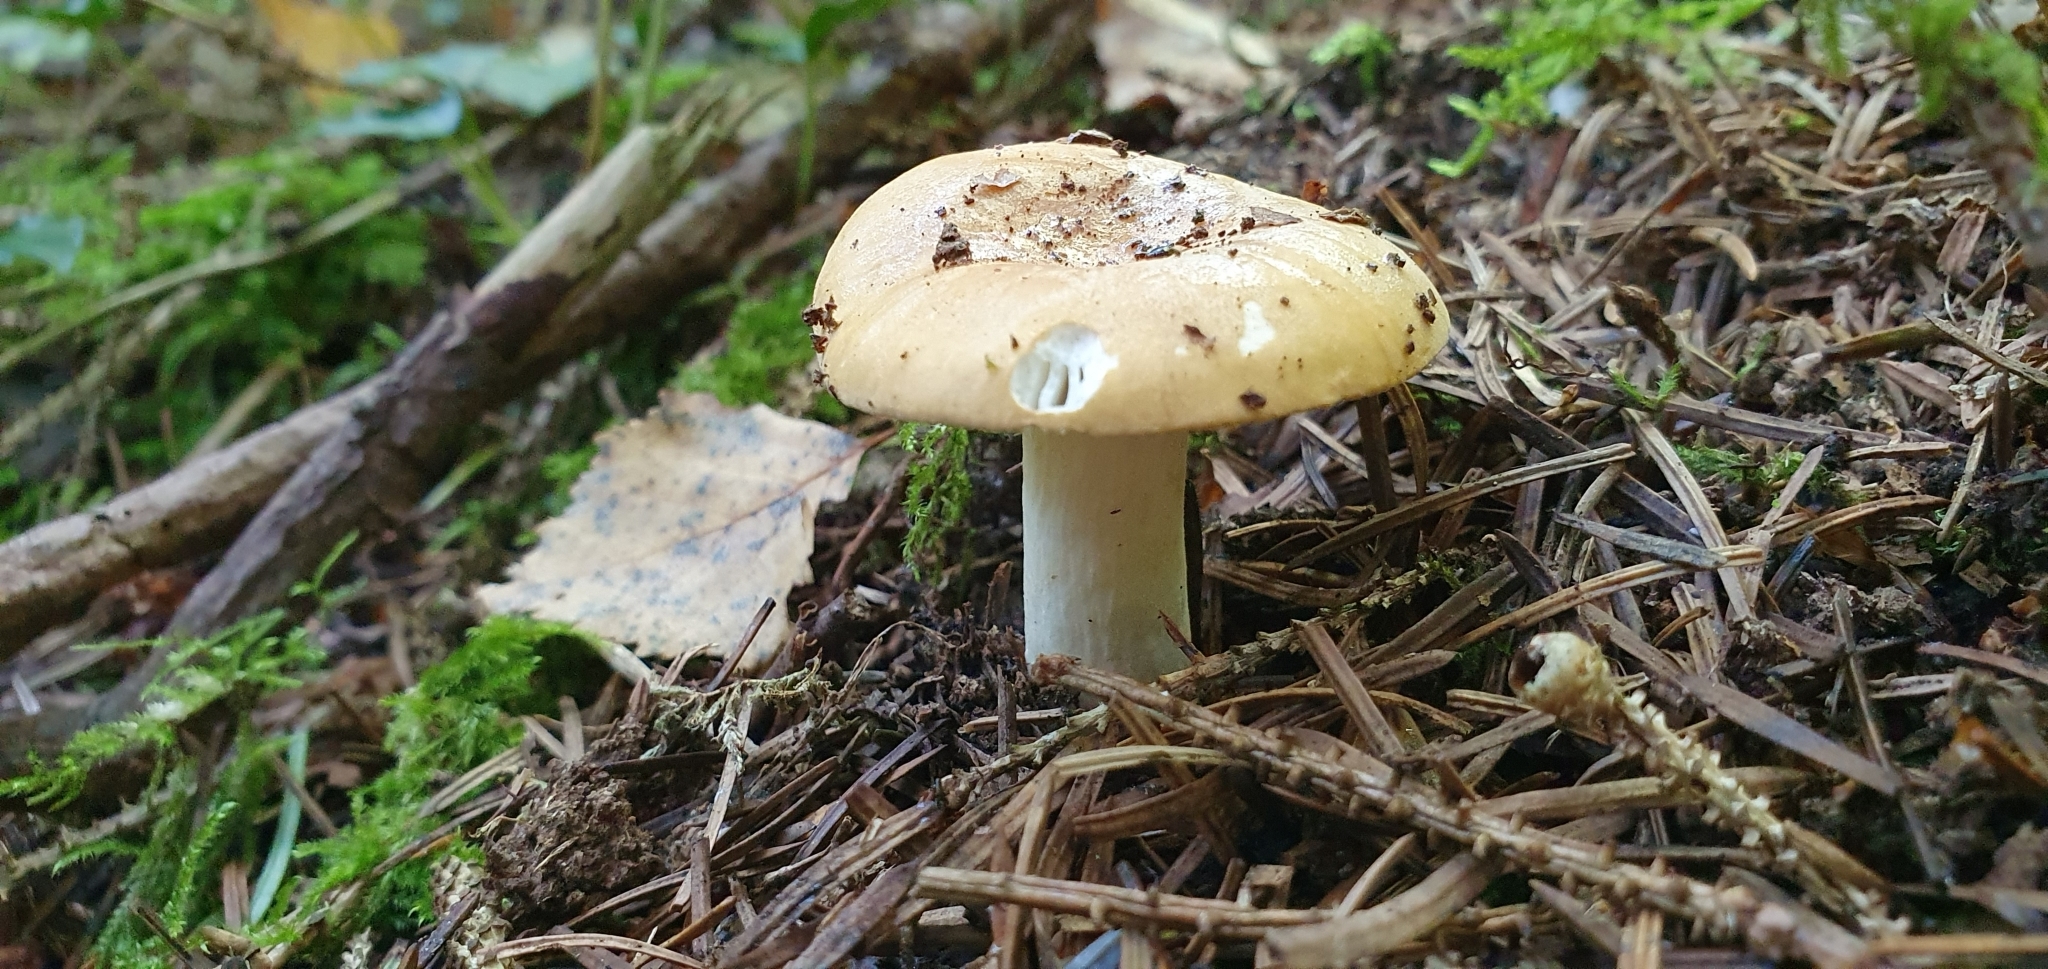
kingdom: Fungi
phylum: Basidiomycota
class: Agaricomycetes
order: Russulales
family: Russulaceae
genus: Russula
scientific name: Russula ochroleuca
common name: Common yellow russula
